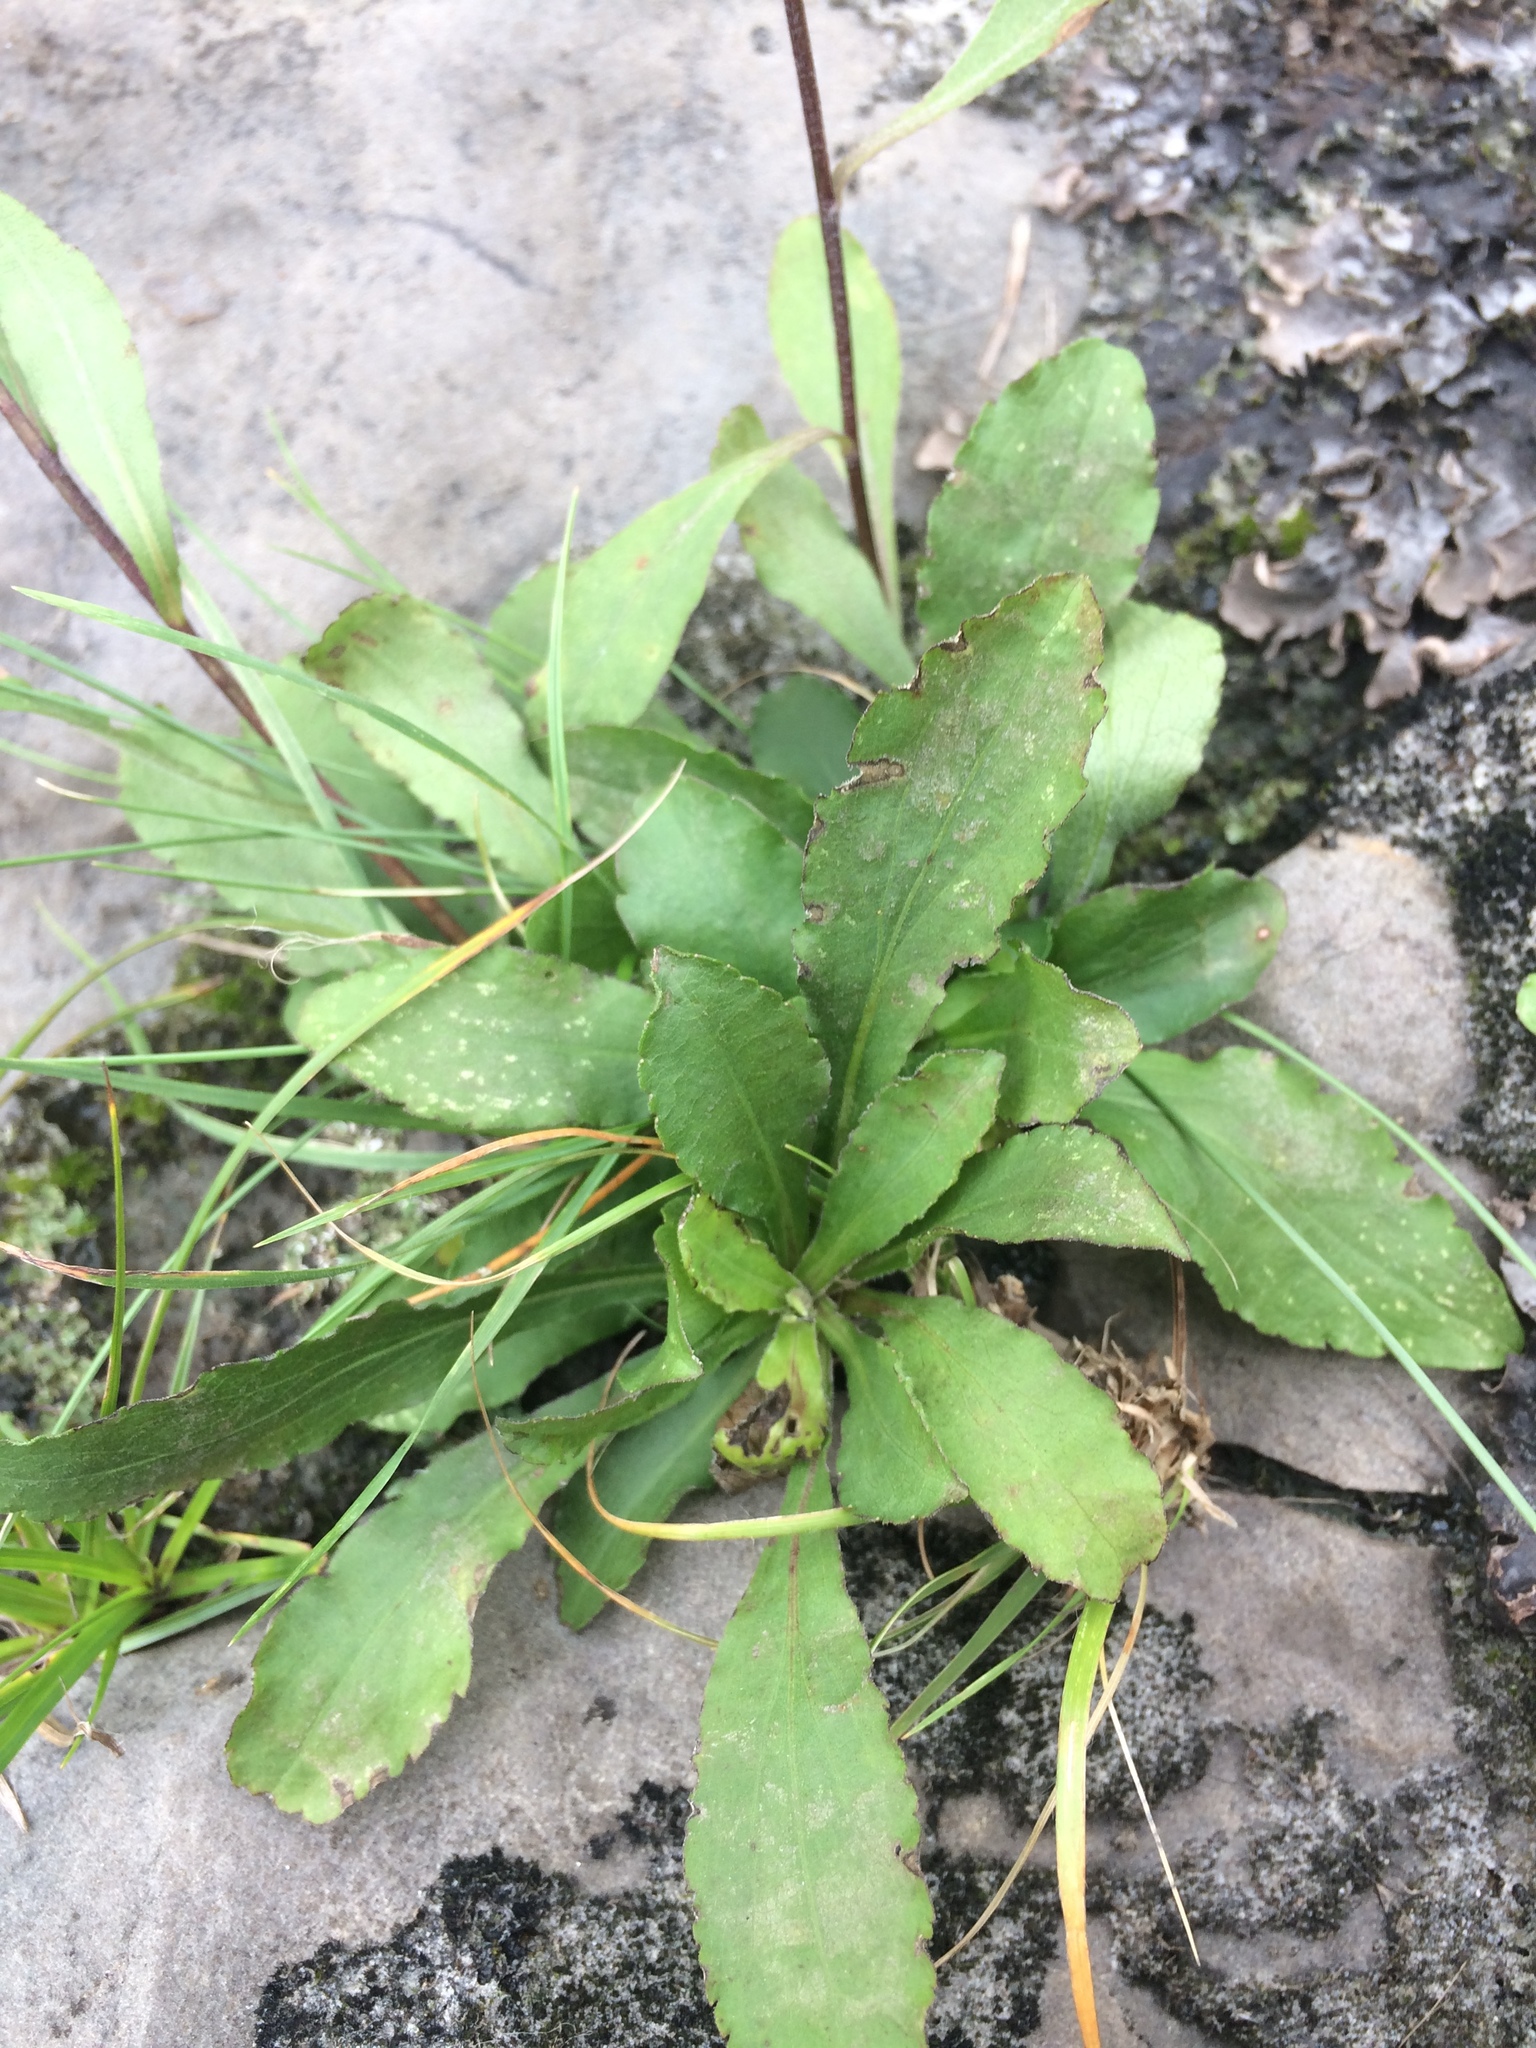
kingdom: Plantae
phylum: Tracheophyta
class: Magnoliopsida
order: Asterales
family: Asteraceae
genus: Solidago
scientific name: Solidago hispida
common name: Hairy goldenrod
